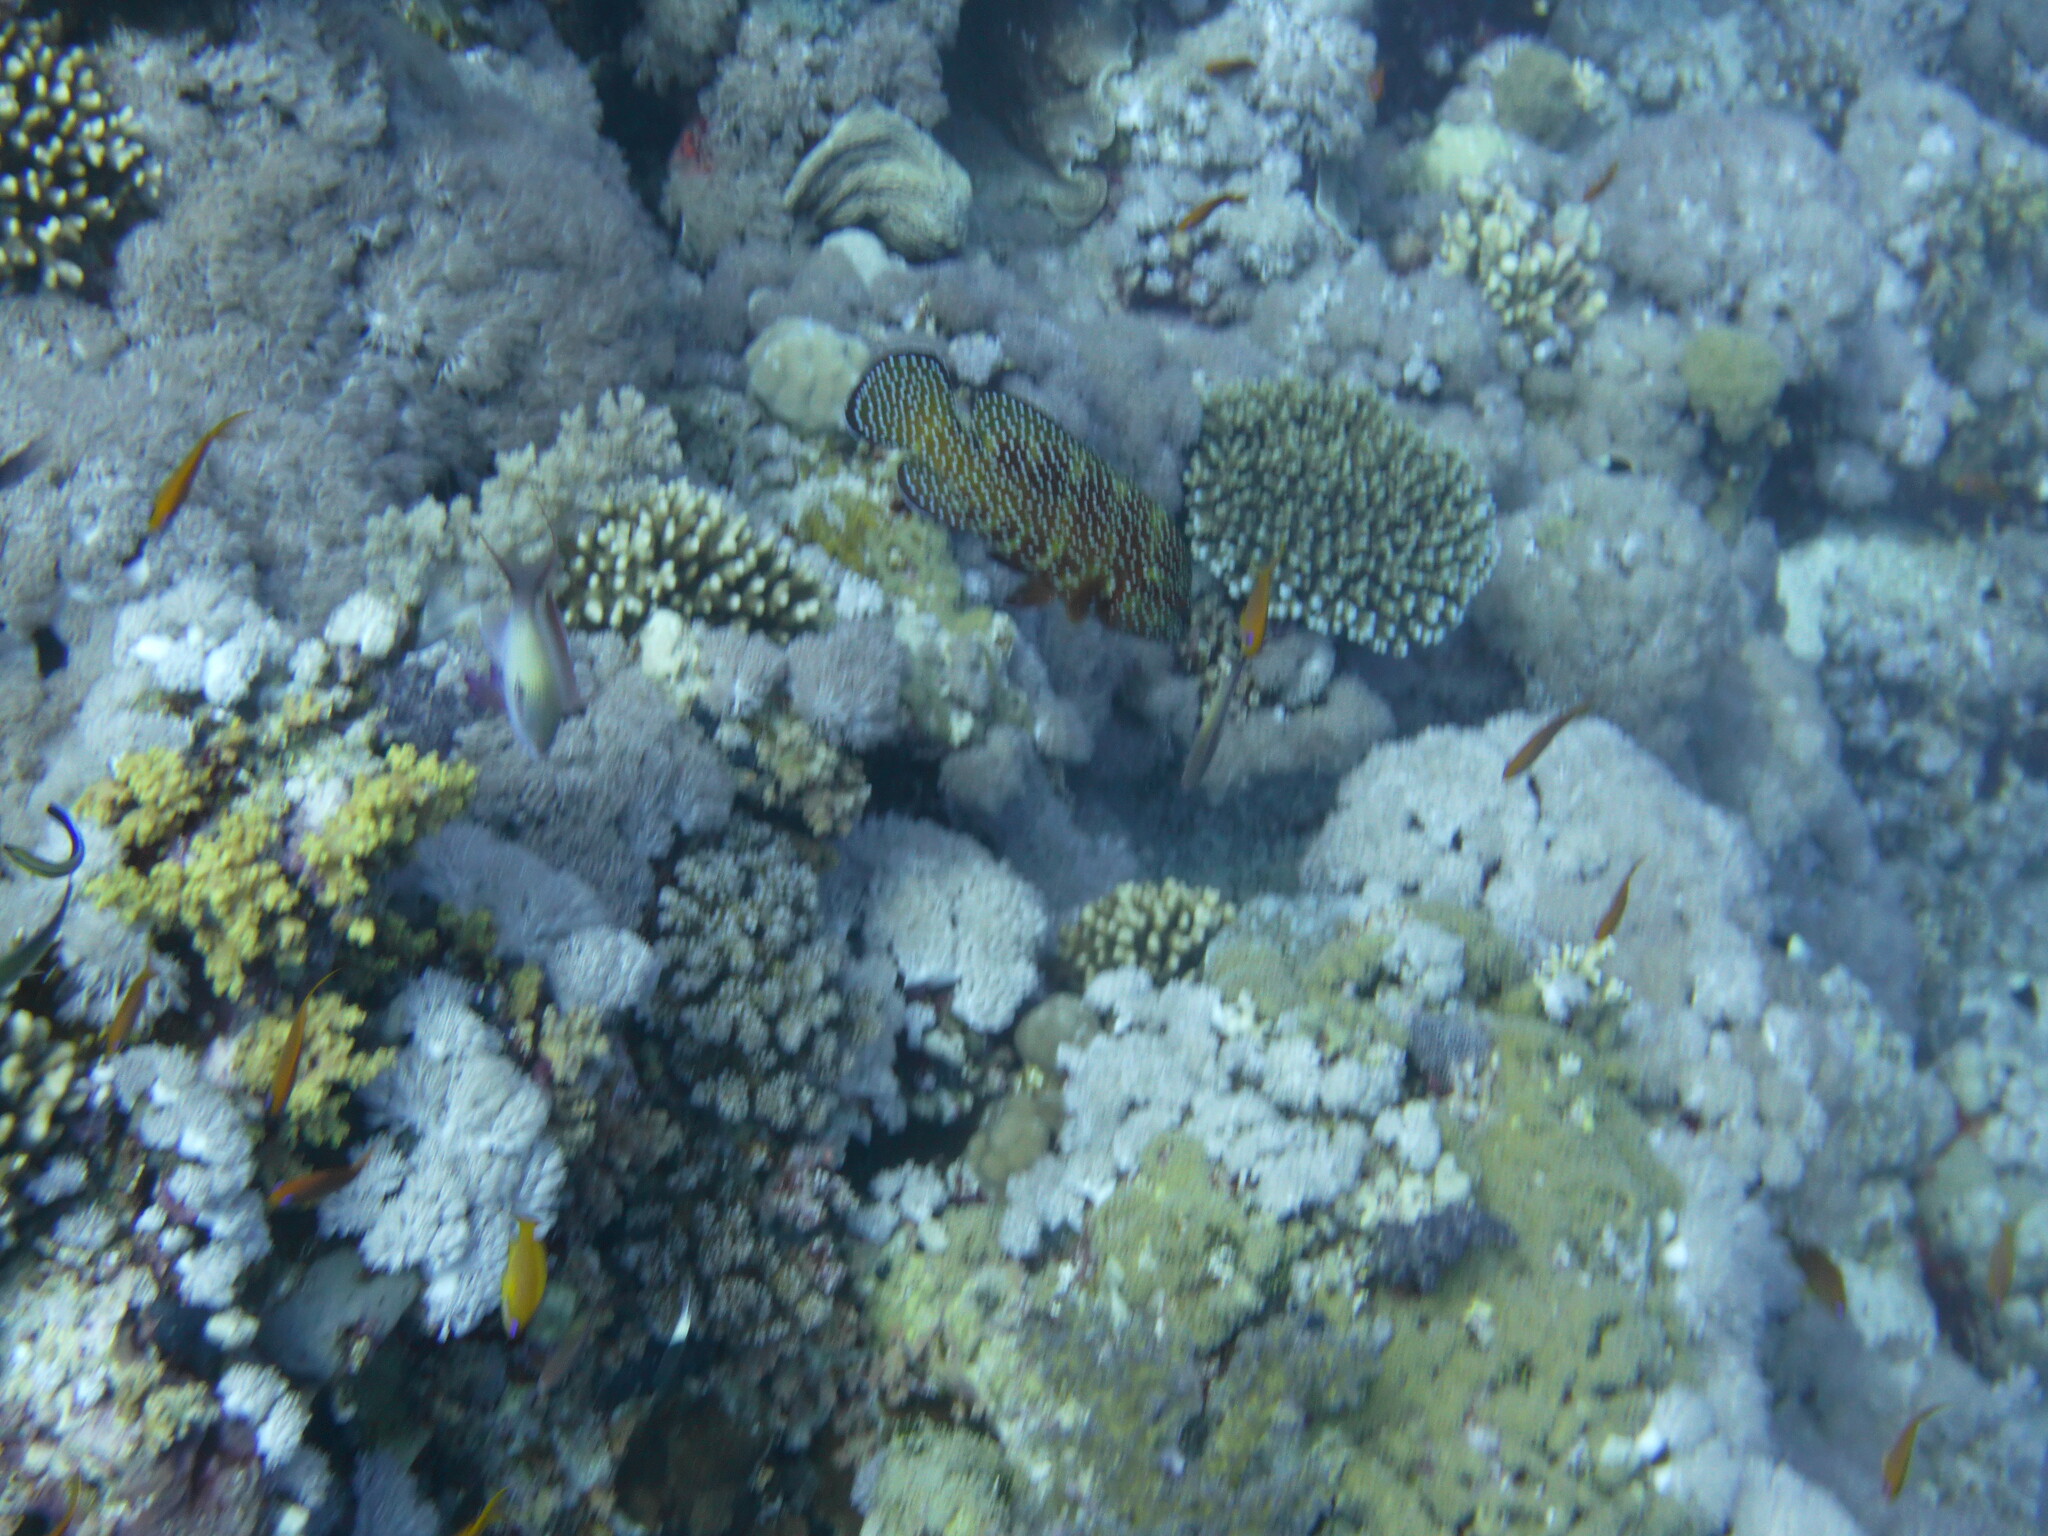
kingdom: Animalia
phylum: Chordata
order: Perciformes
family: Serranidae
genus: Cephalopholis
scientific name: Cephalopholis miniata
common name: Coral hind
